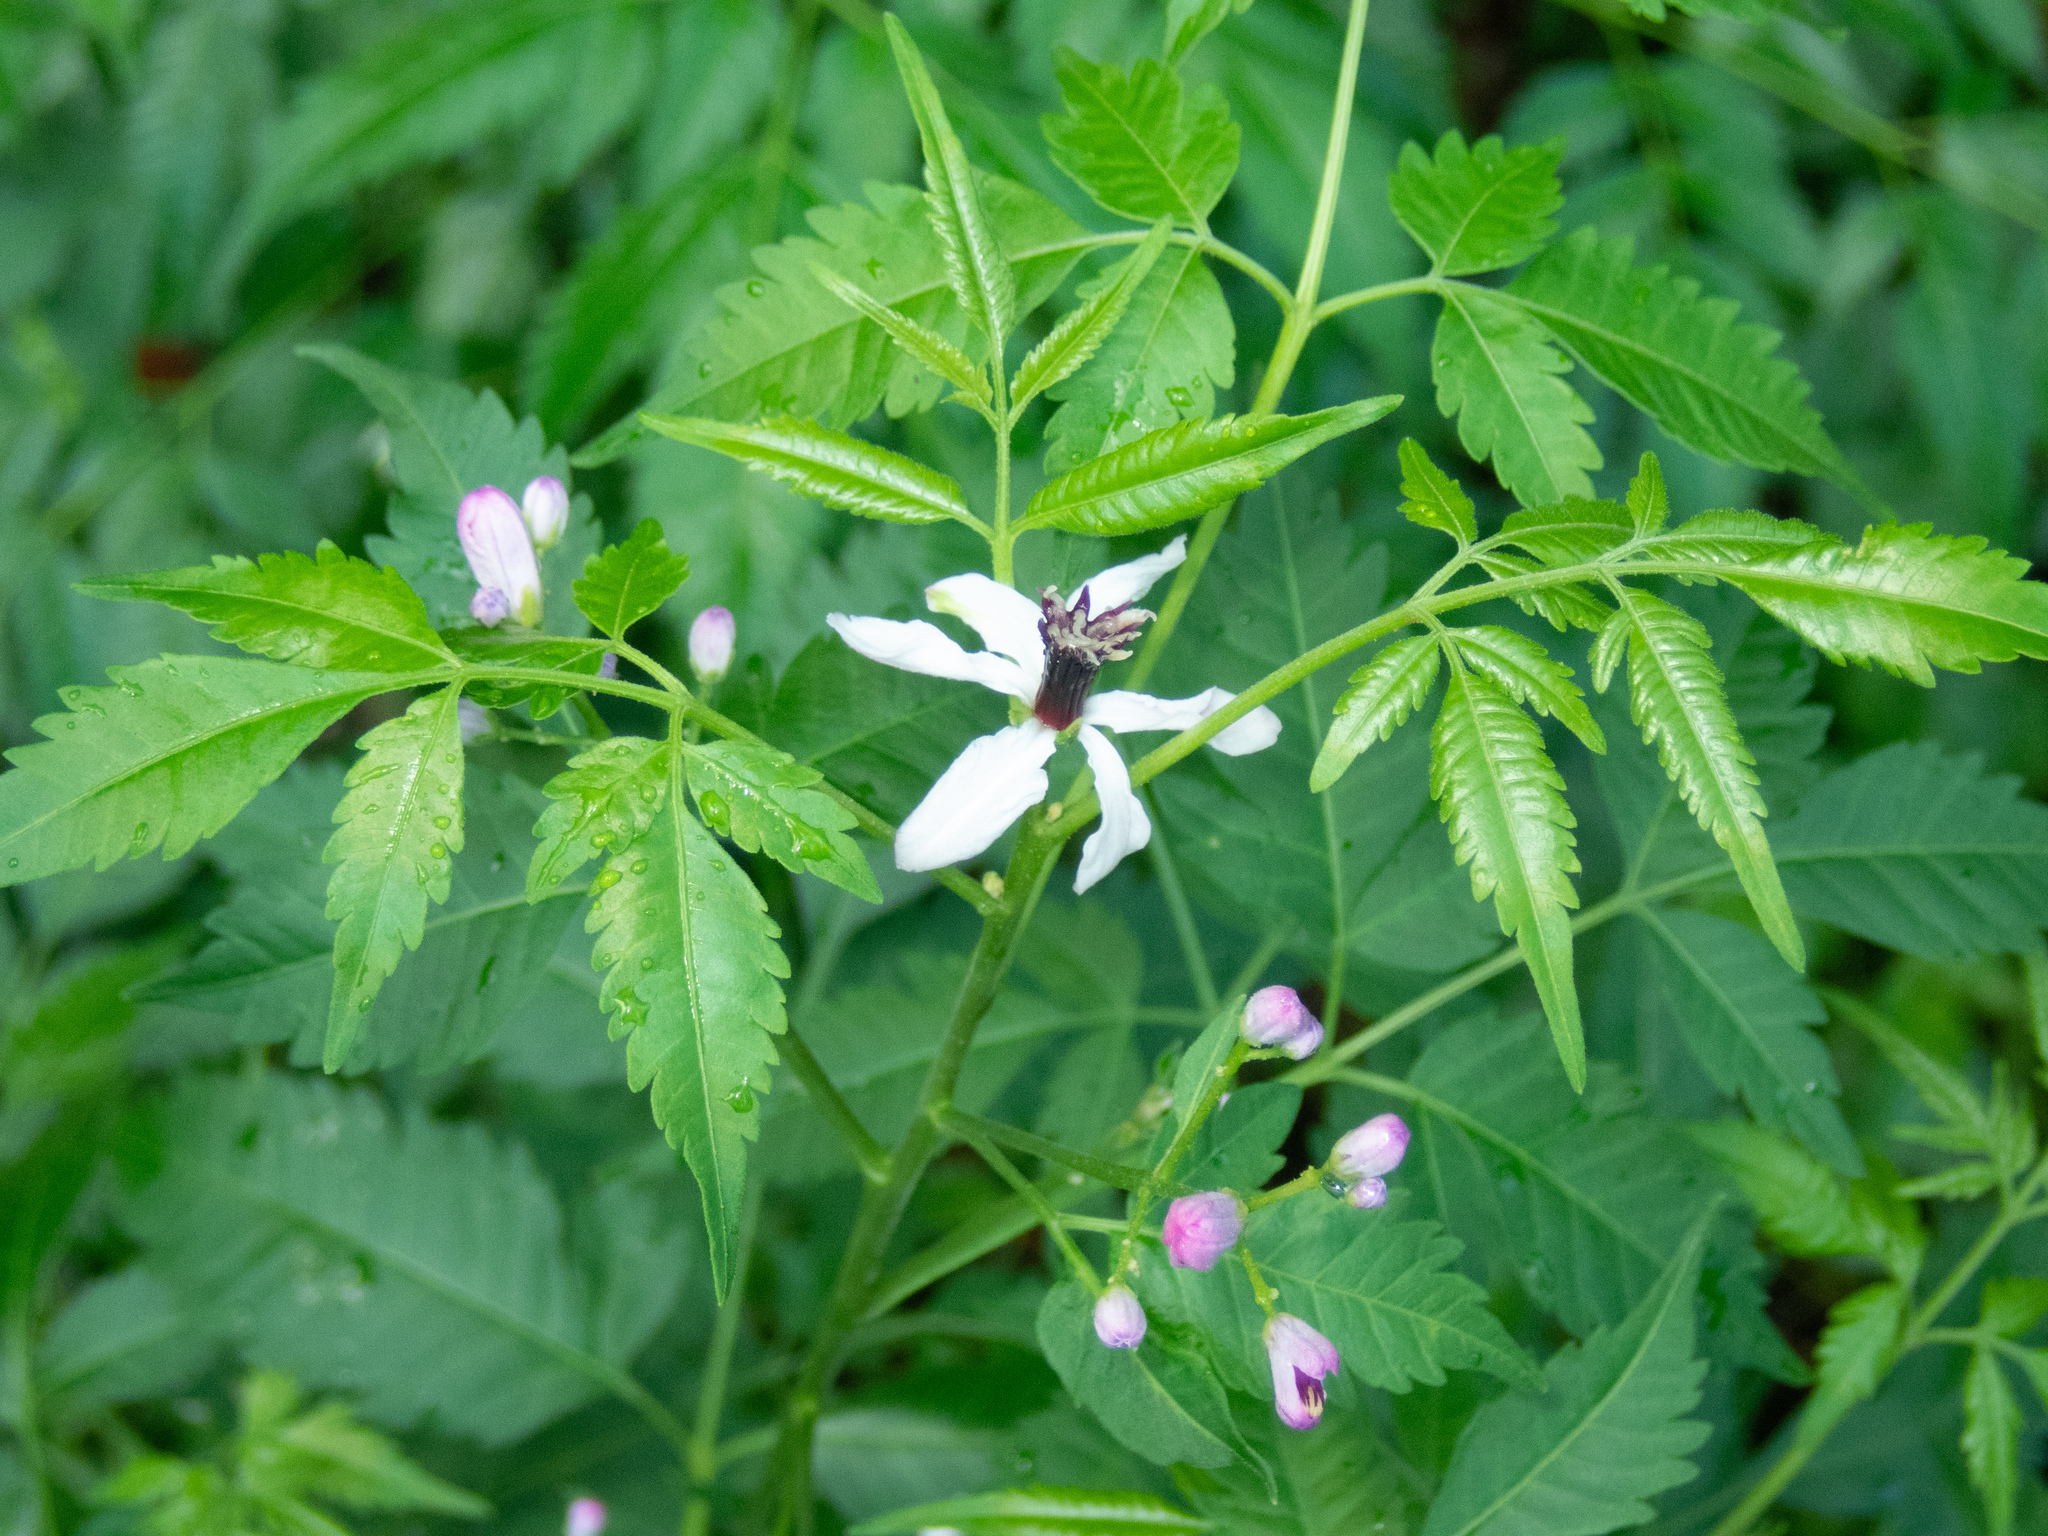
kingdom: Plantae
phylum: Tracheophyta
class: Magnoliopsida
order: Sapindales
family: Meliaceae
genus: Melia
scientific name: Melia azedarach
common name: Chinaberrytree
